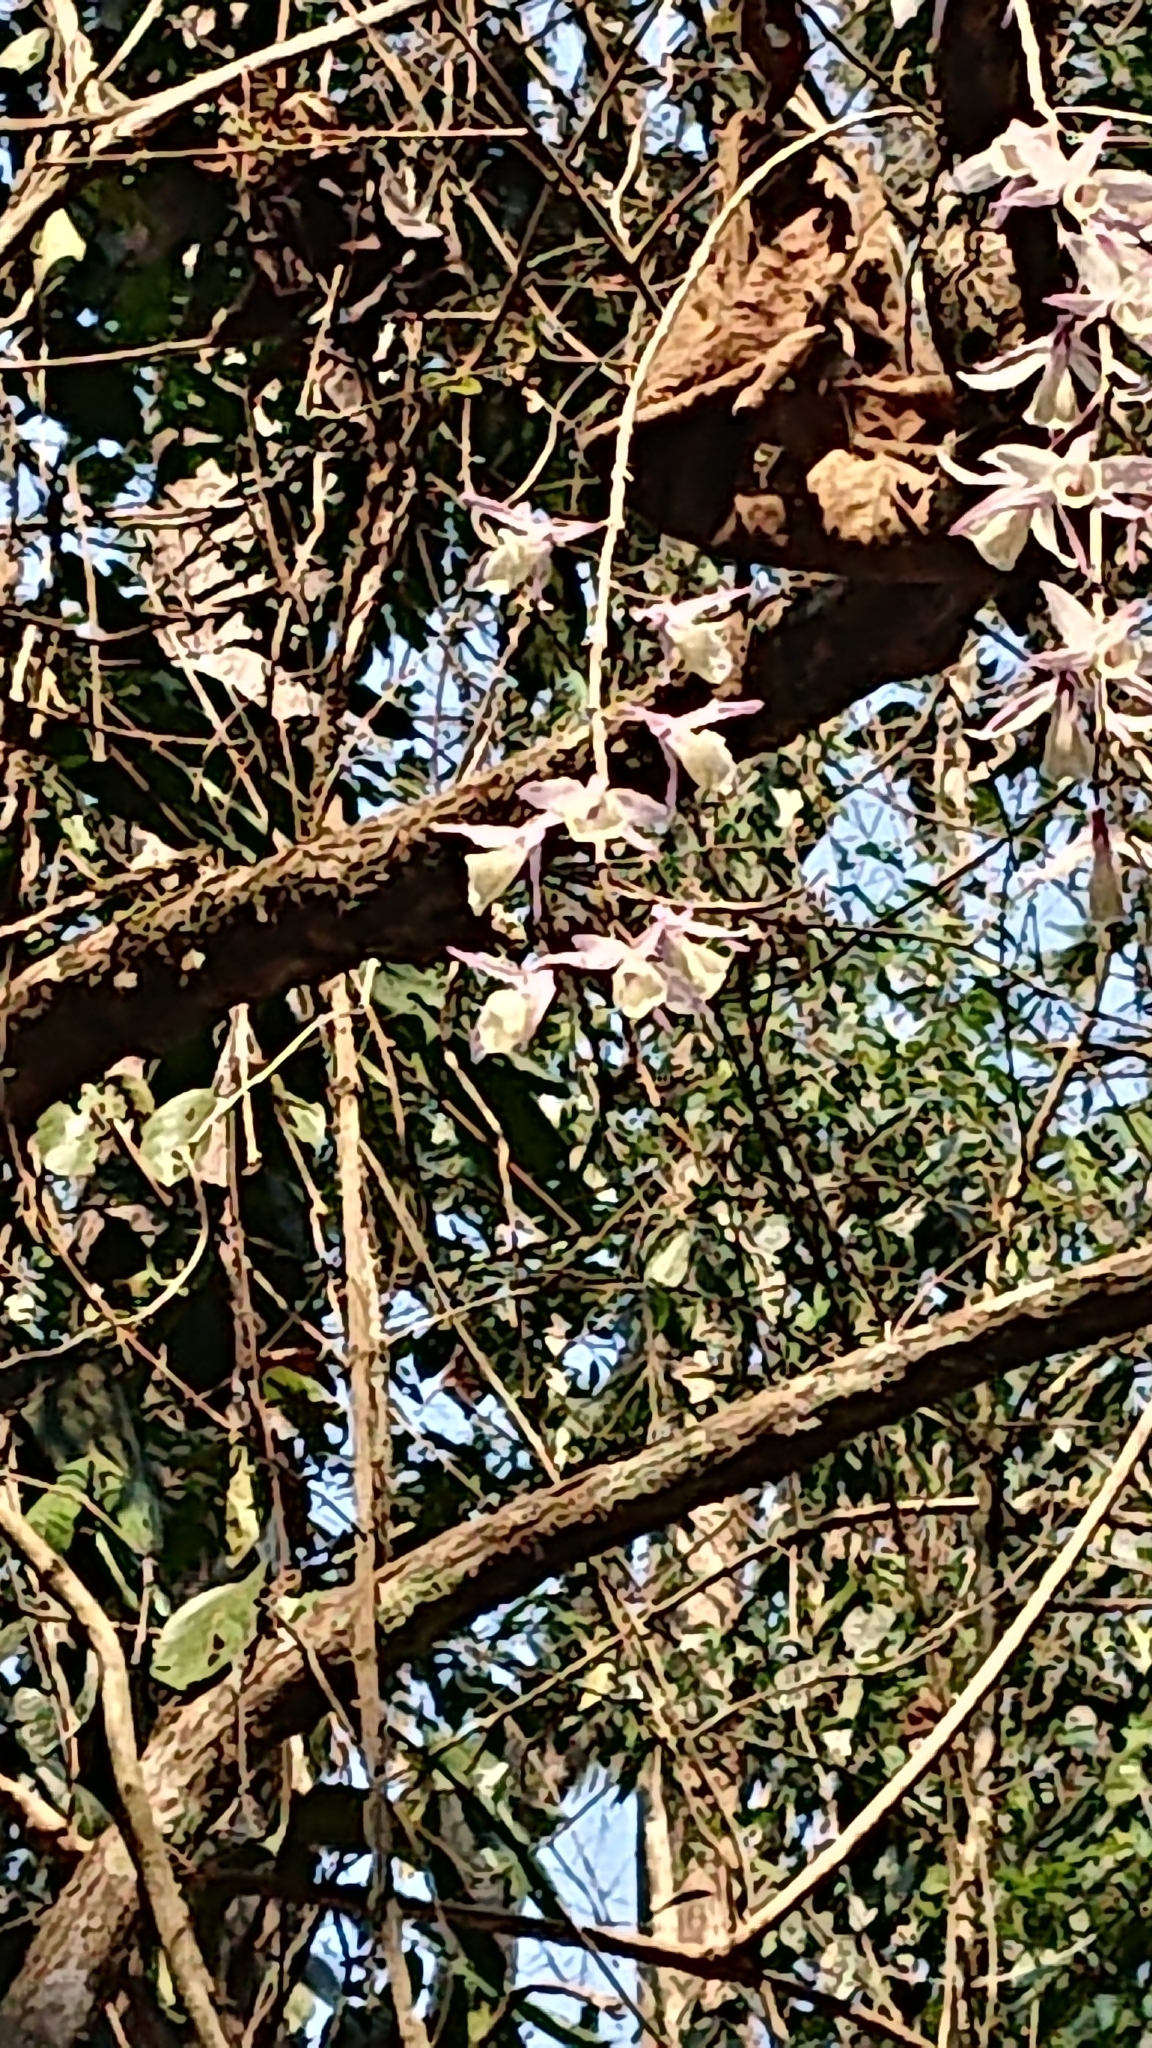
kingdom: Plantae
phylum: Tracheophyta
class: Liliopsida
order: Asparagales
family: Orchidaceae
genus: Dendrobium
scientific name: Dendrobium aphyllum
